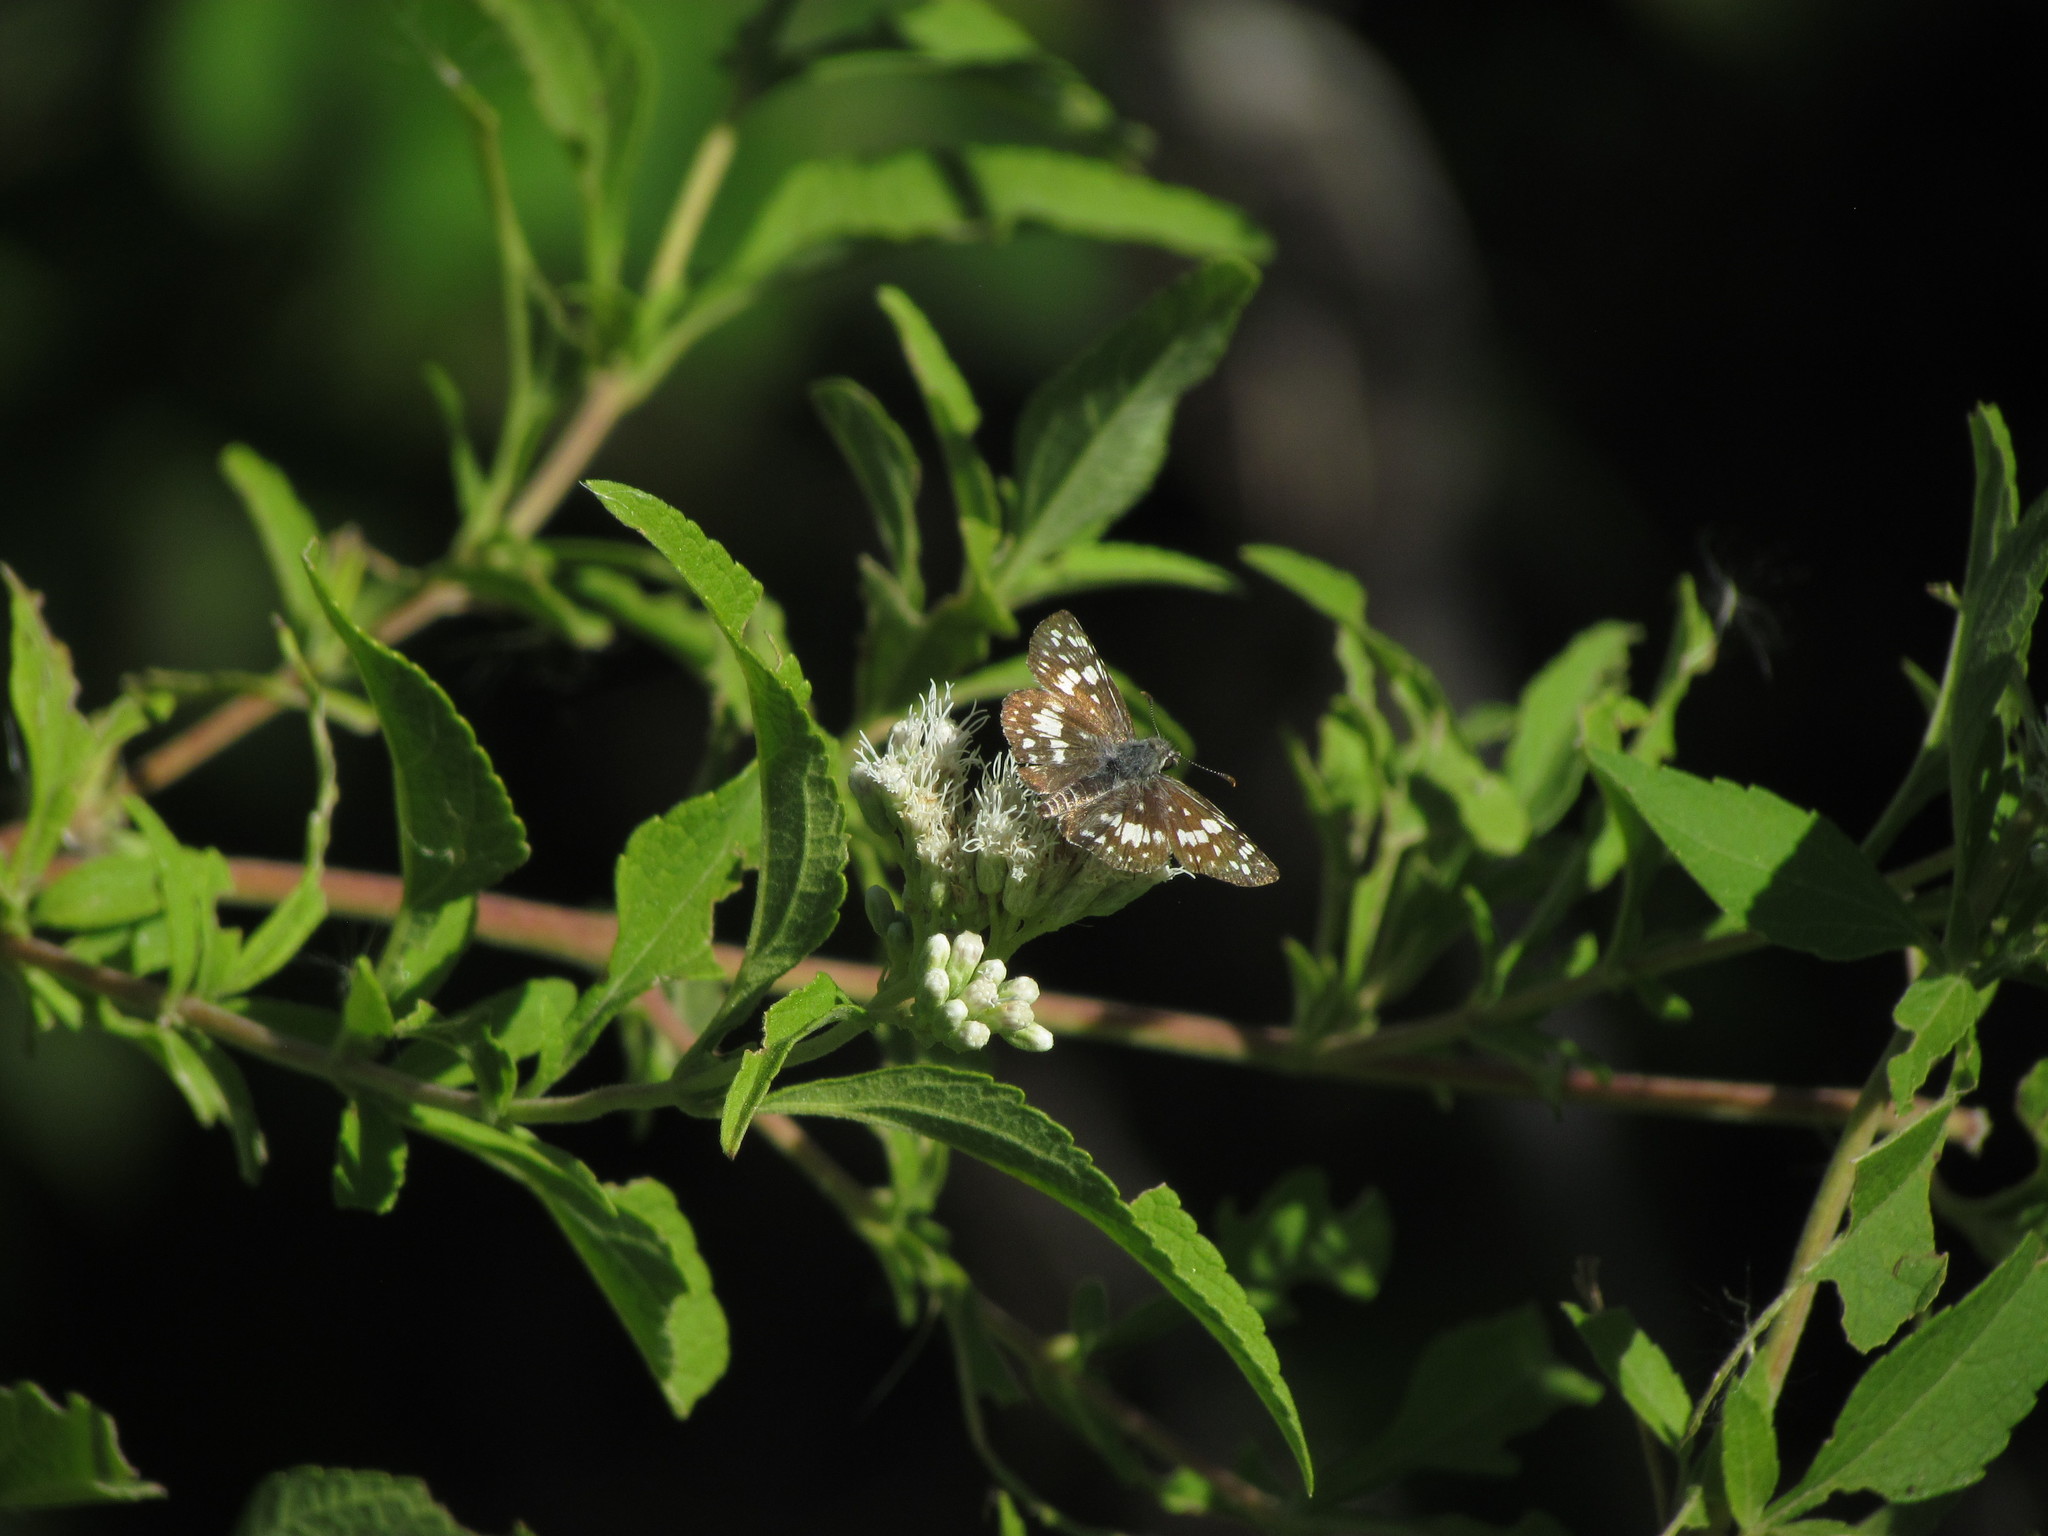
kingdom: Animalia
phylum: Arthropoda
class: Insecta
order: Lepidoptera
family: Hesperiidae
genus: Burnsius
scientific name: Burnsius orcynoides
